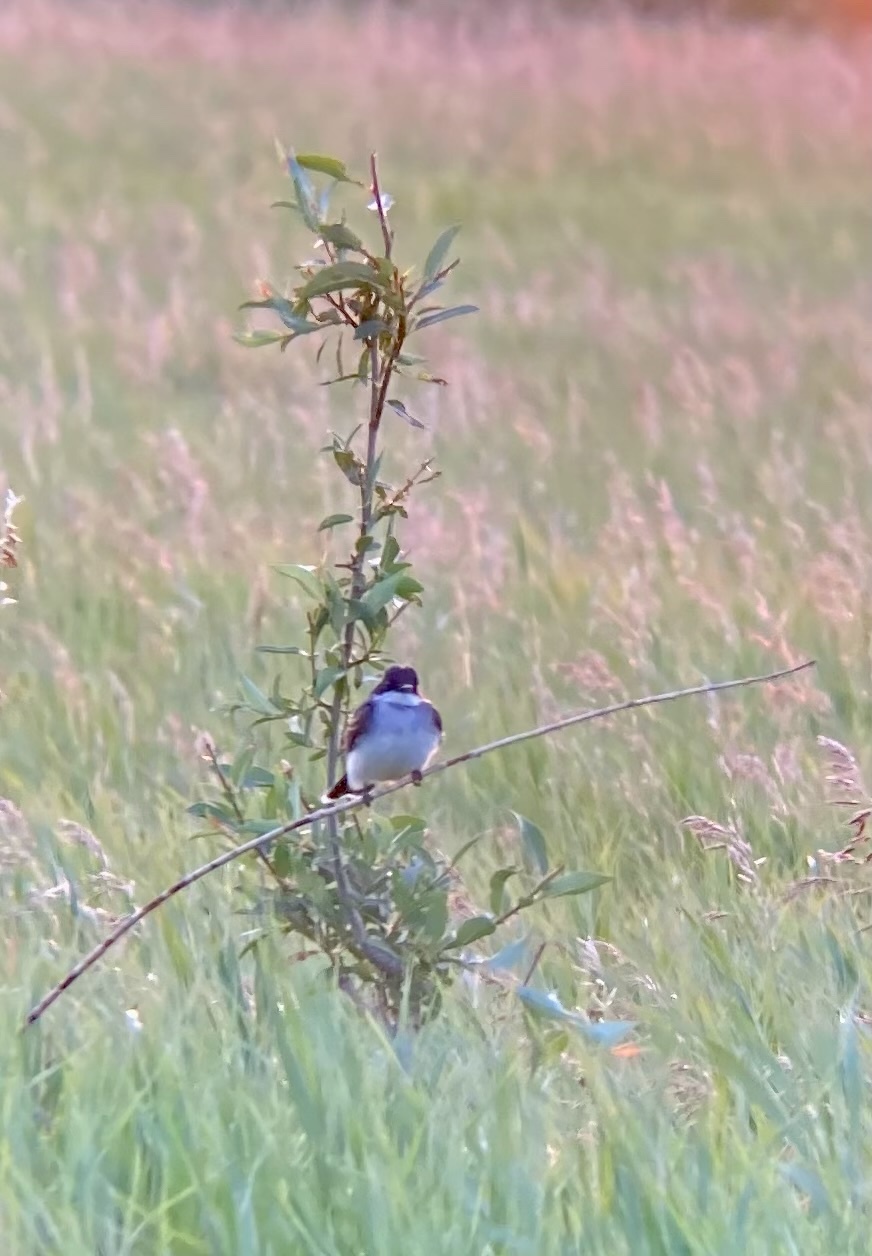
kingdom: Animalia
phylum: Chordata
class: Aves
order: Passeriformes
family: Tyrannidae
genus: Tyrannus
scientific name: Tyrannus tyrannus
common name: Eastern kingbird
